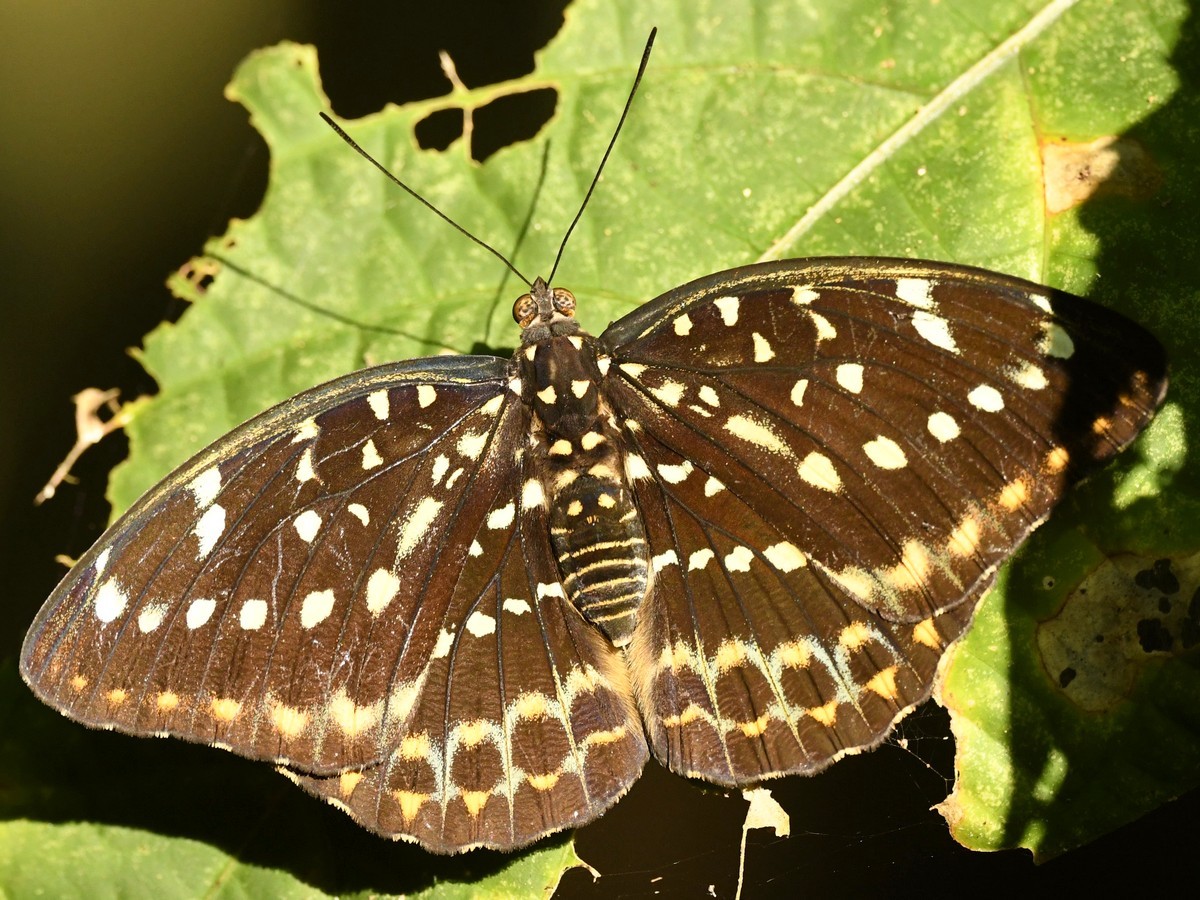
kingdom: Animalia
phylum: Arthropoda
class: Insecta
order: Lepidoptera
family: Nymphalidae
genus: Lexias
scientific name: Lexias dirtea
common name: Black-tipped archduke
